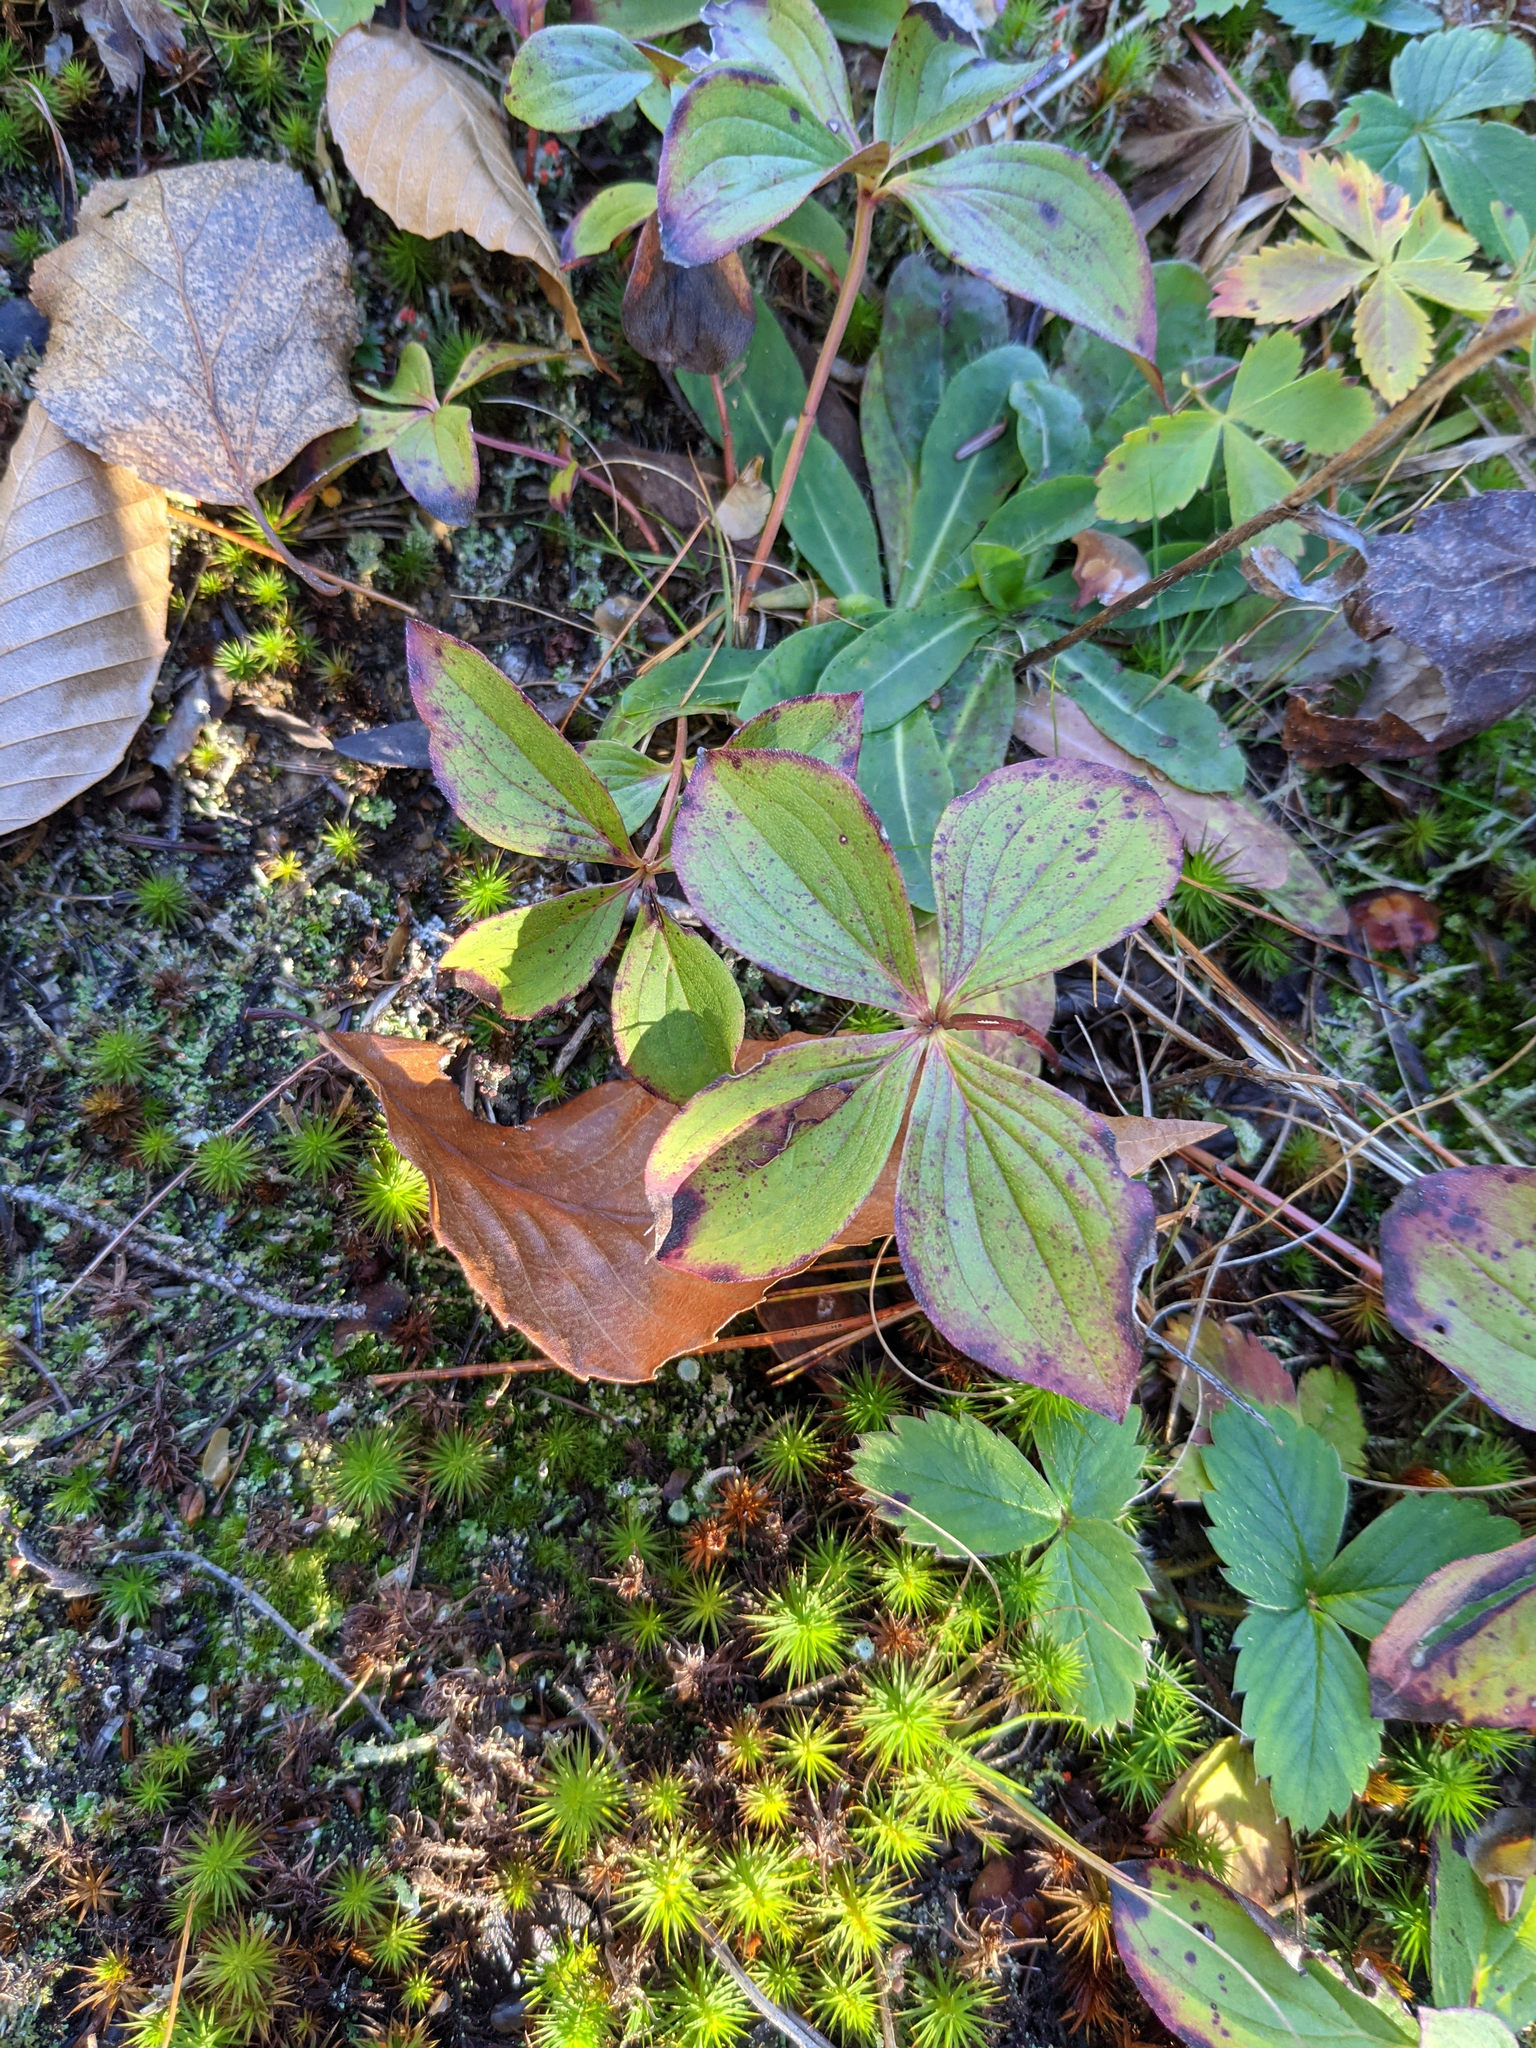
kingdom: Plantae
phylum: Tracheophyta
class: Magnoliopsida
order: Cornales
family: Cornaceae
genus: Cornus
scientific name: Cornus canadensis
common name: Creeping dogwood
